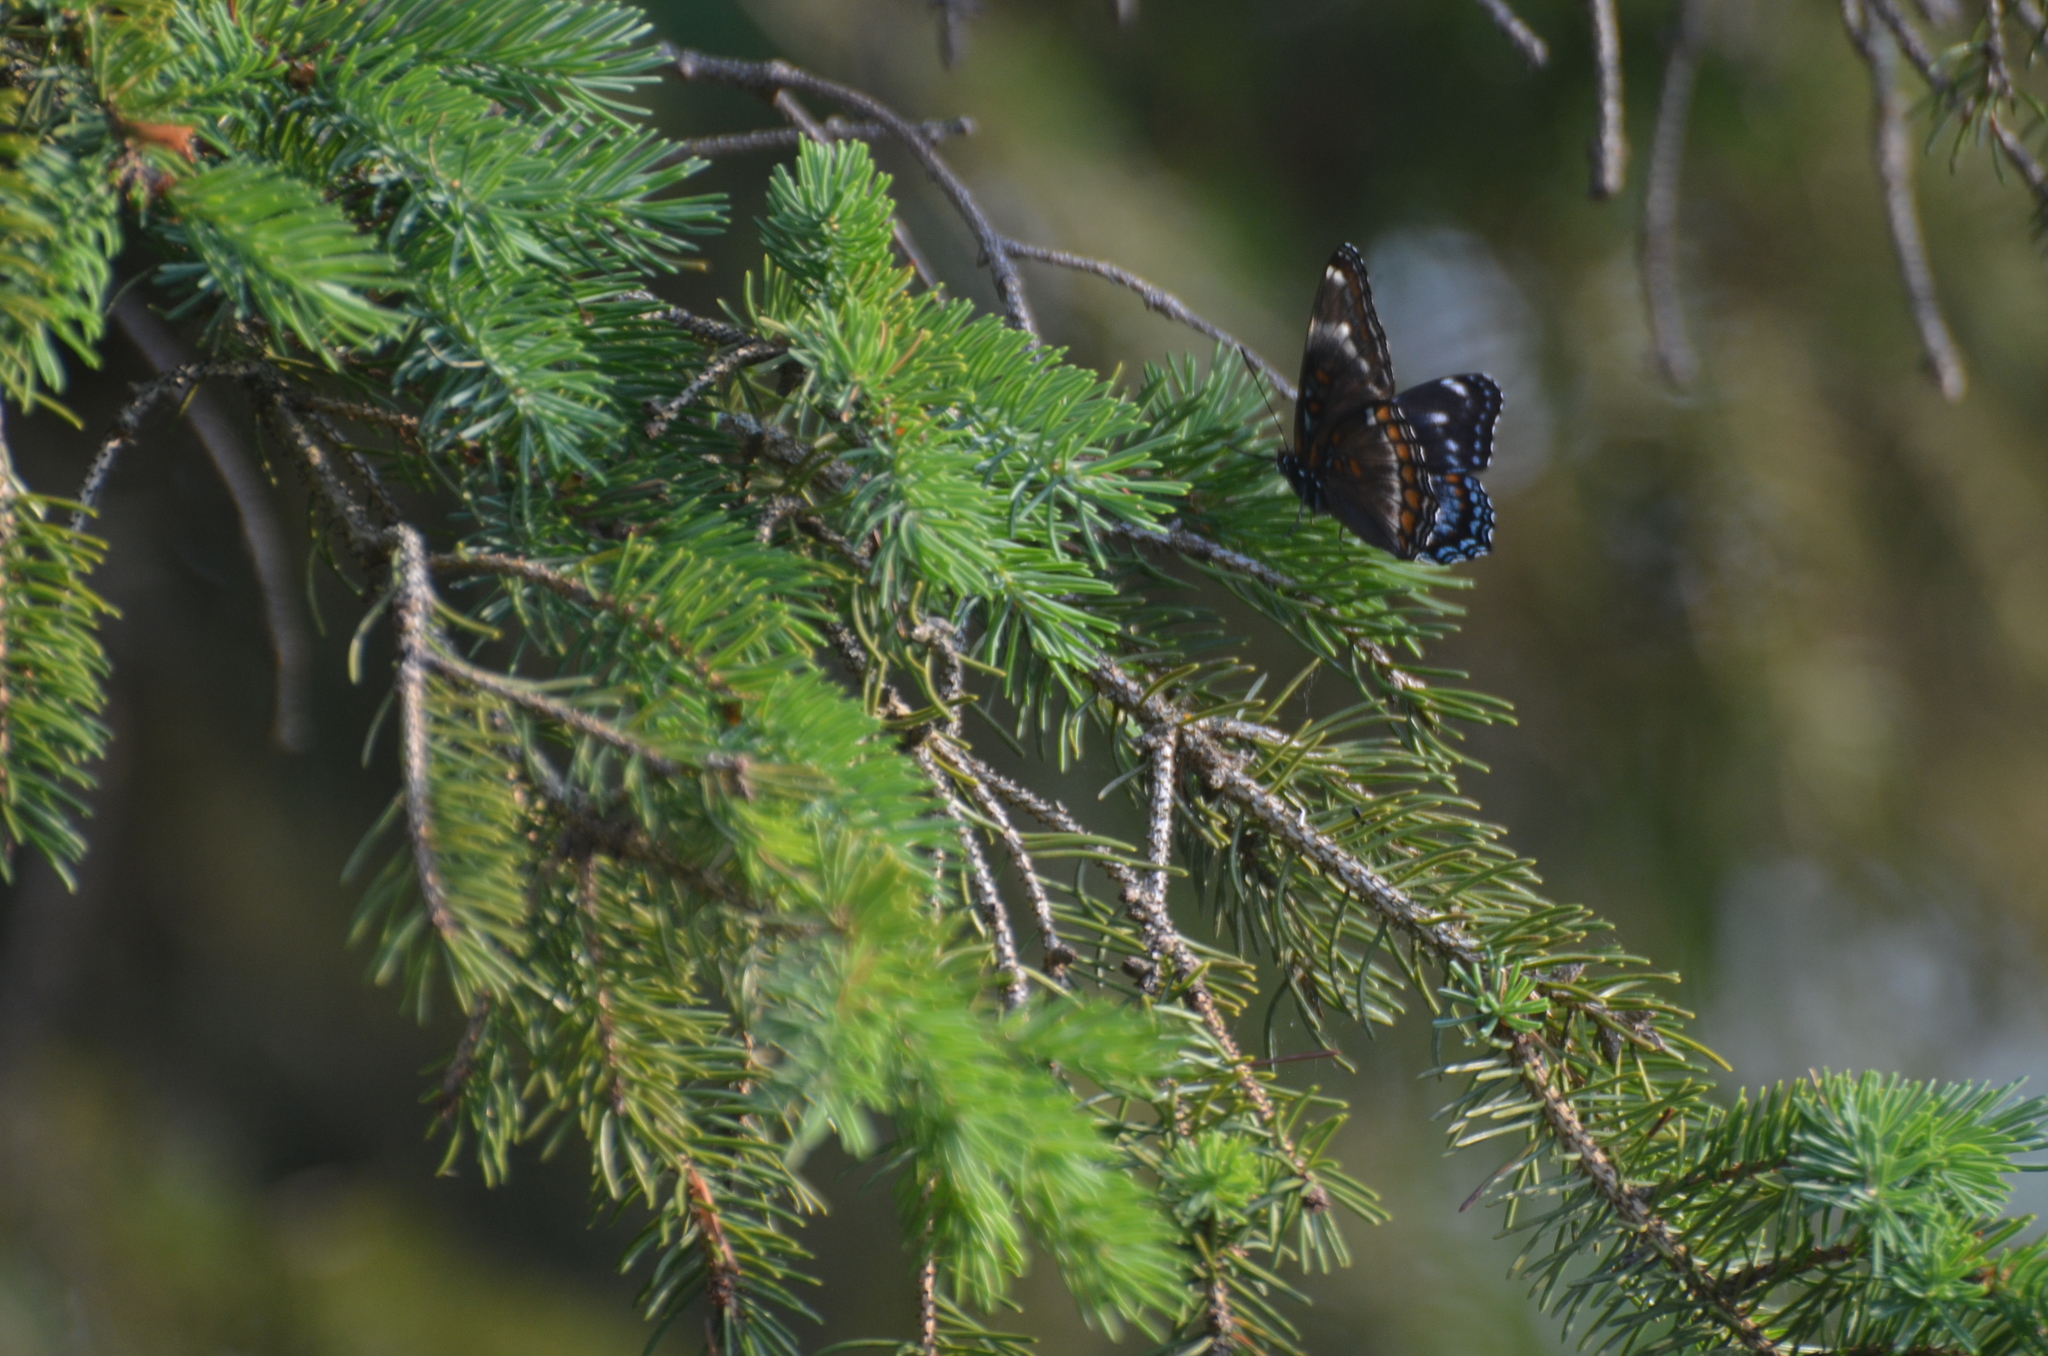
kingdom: Animalia
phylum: Arthropoda
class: Insecta
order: Lepidoptera
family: Nymphalidae
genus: Limenitis
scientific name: Limenitis
